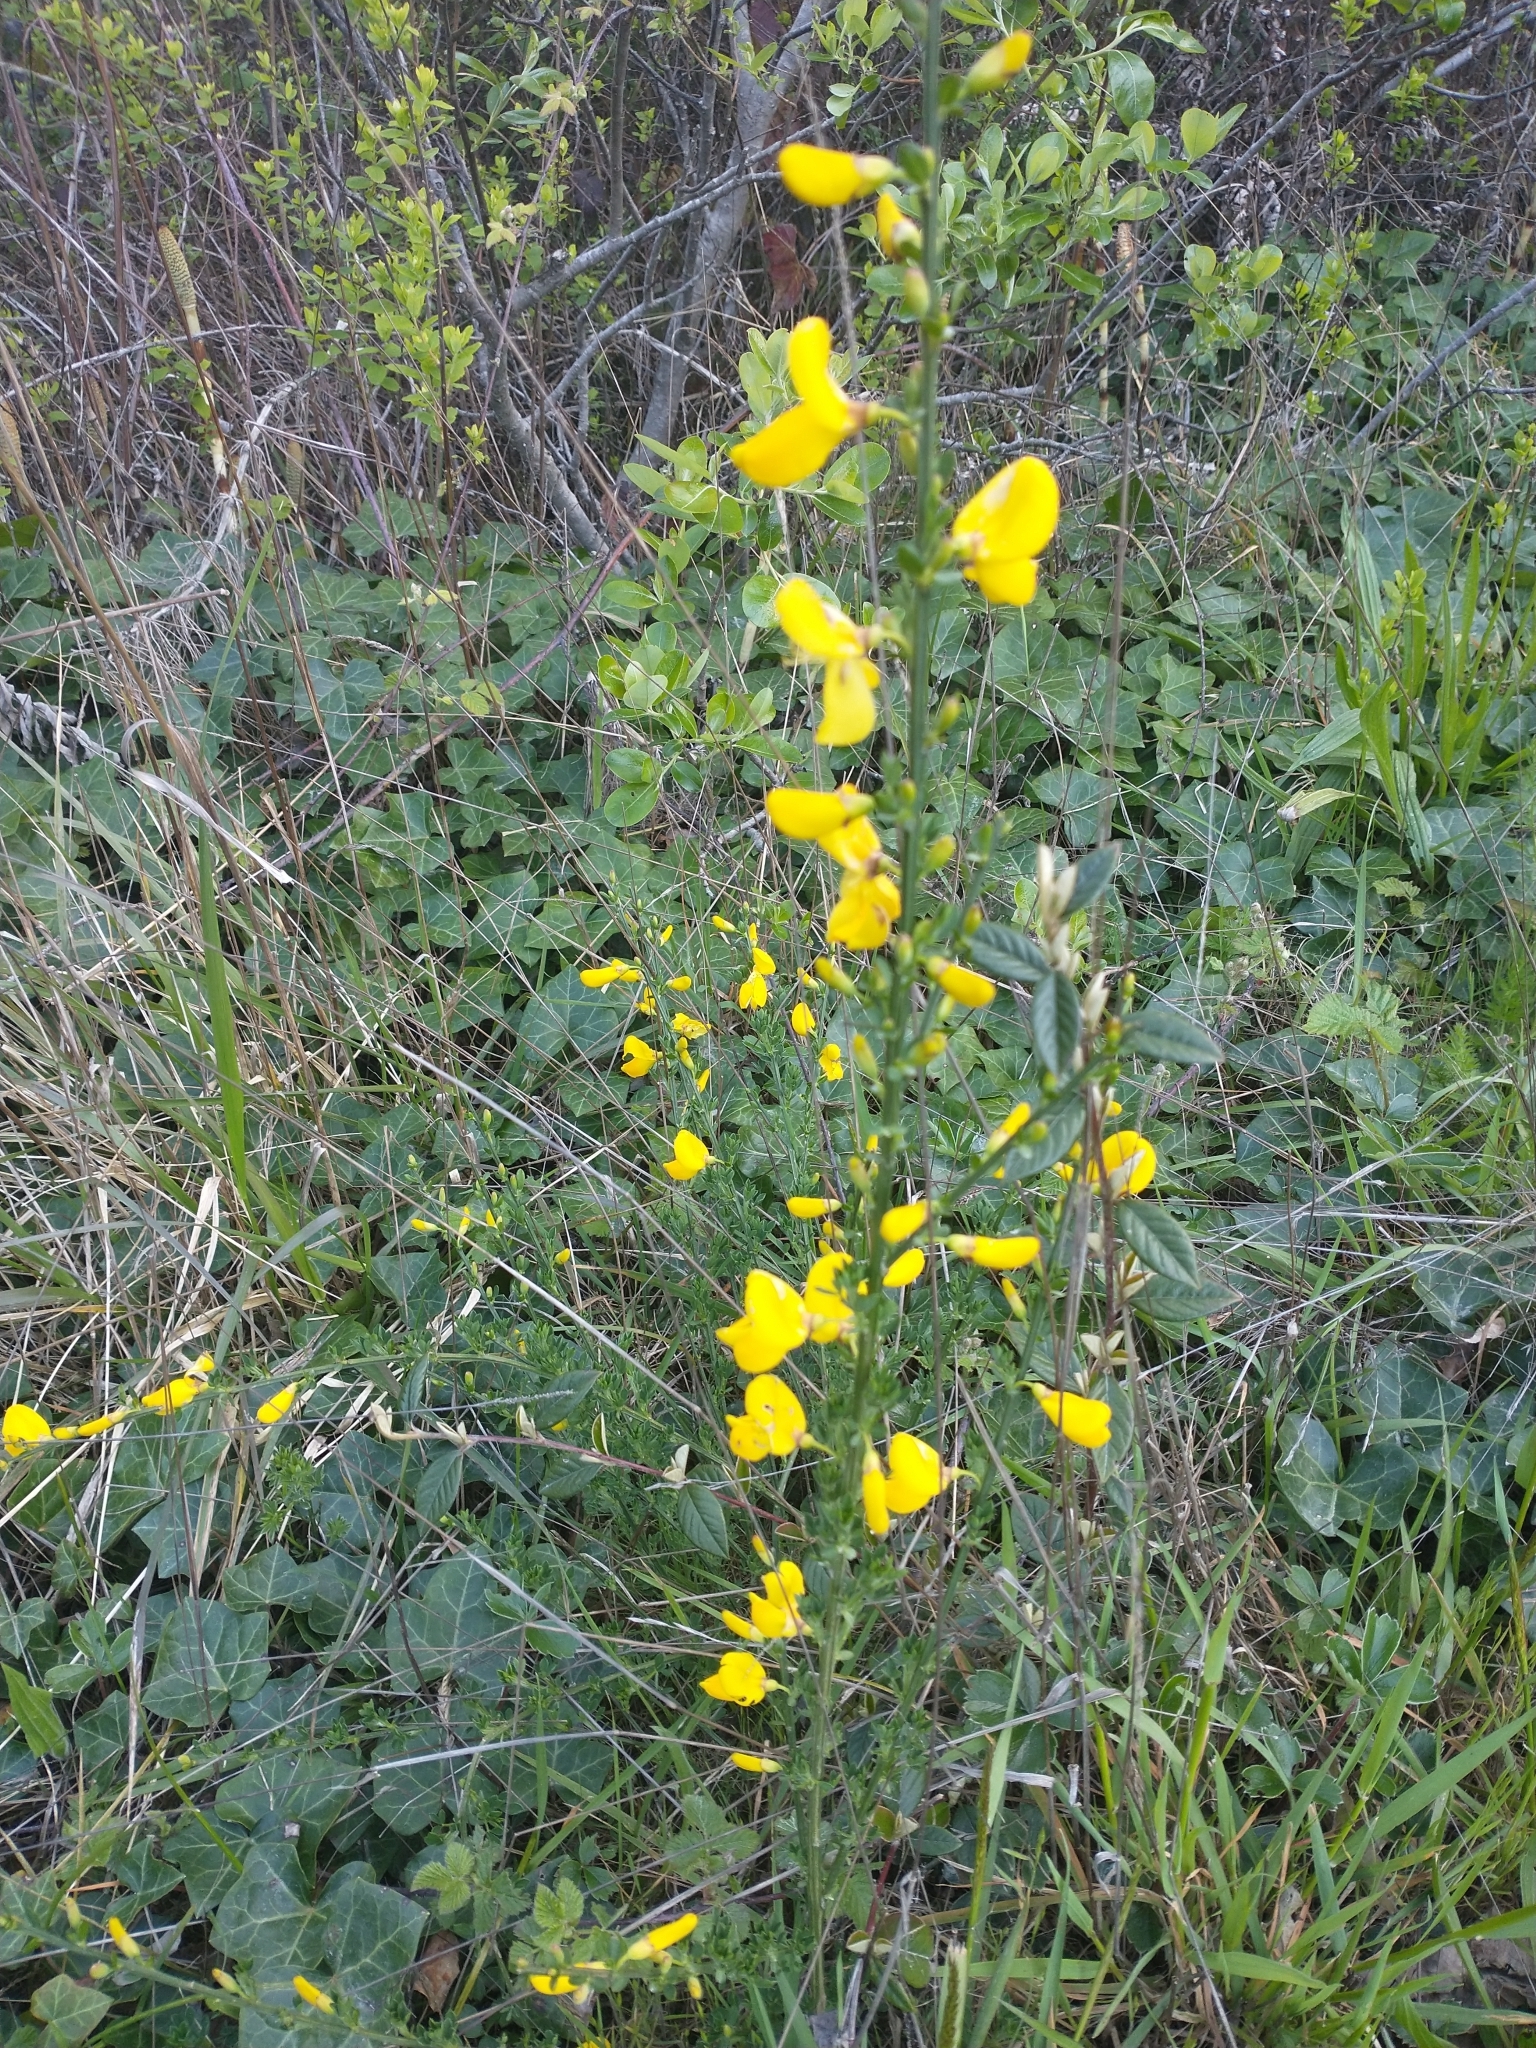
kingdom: Plantae
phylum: Tracheophyta
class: Magnoliopsida
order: Fabales
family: Fabaceae
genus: Cytisus
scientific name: Cytisus scoparius
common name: Scotch broom
